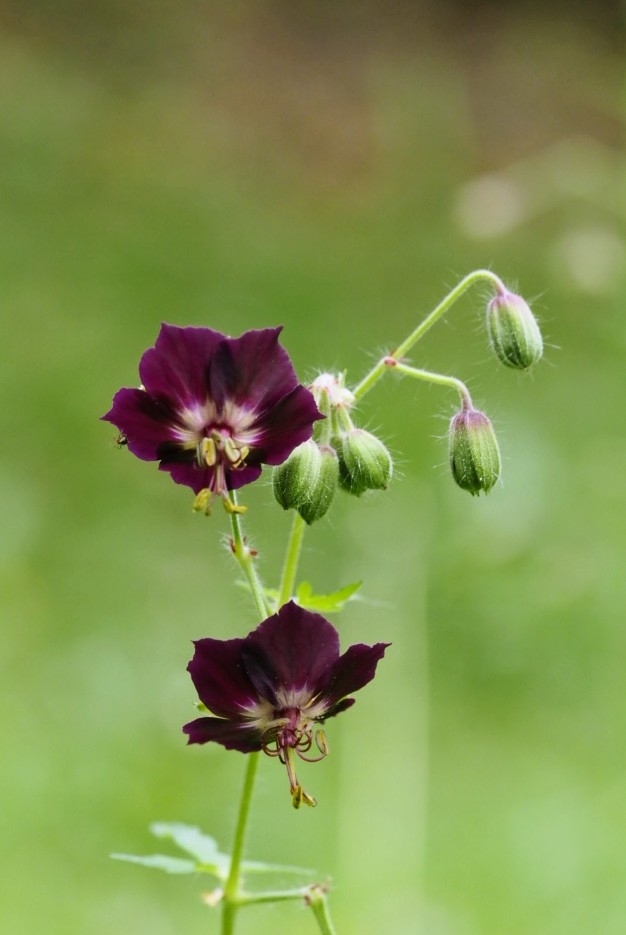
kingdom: Plantae
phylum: Tracheophyta
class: Magnoliopsida
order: Geraniales
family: Geraniaceae
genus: Geranium
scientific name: Geranium phaeum
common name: Dusky crane's-bill
